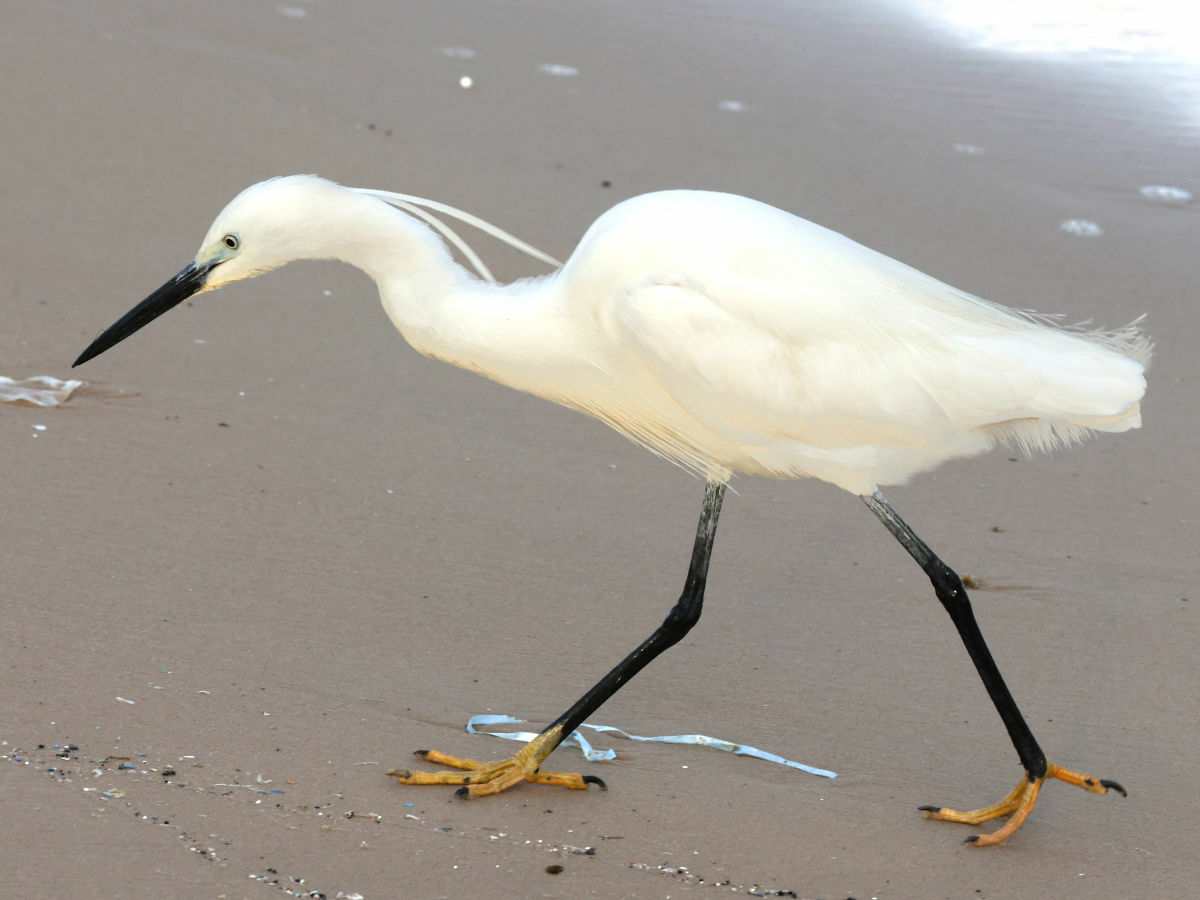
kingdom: Animalia
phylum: Chordata
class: Aves
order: Pelecaniformes
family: Ardeidae
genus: Egretta
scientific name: Egretta garzetta
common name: Little egret
